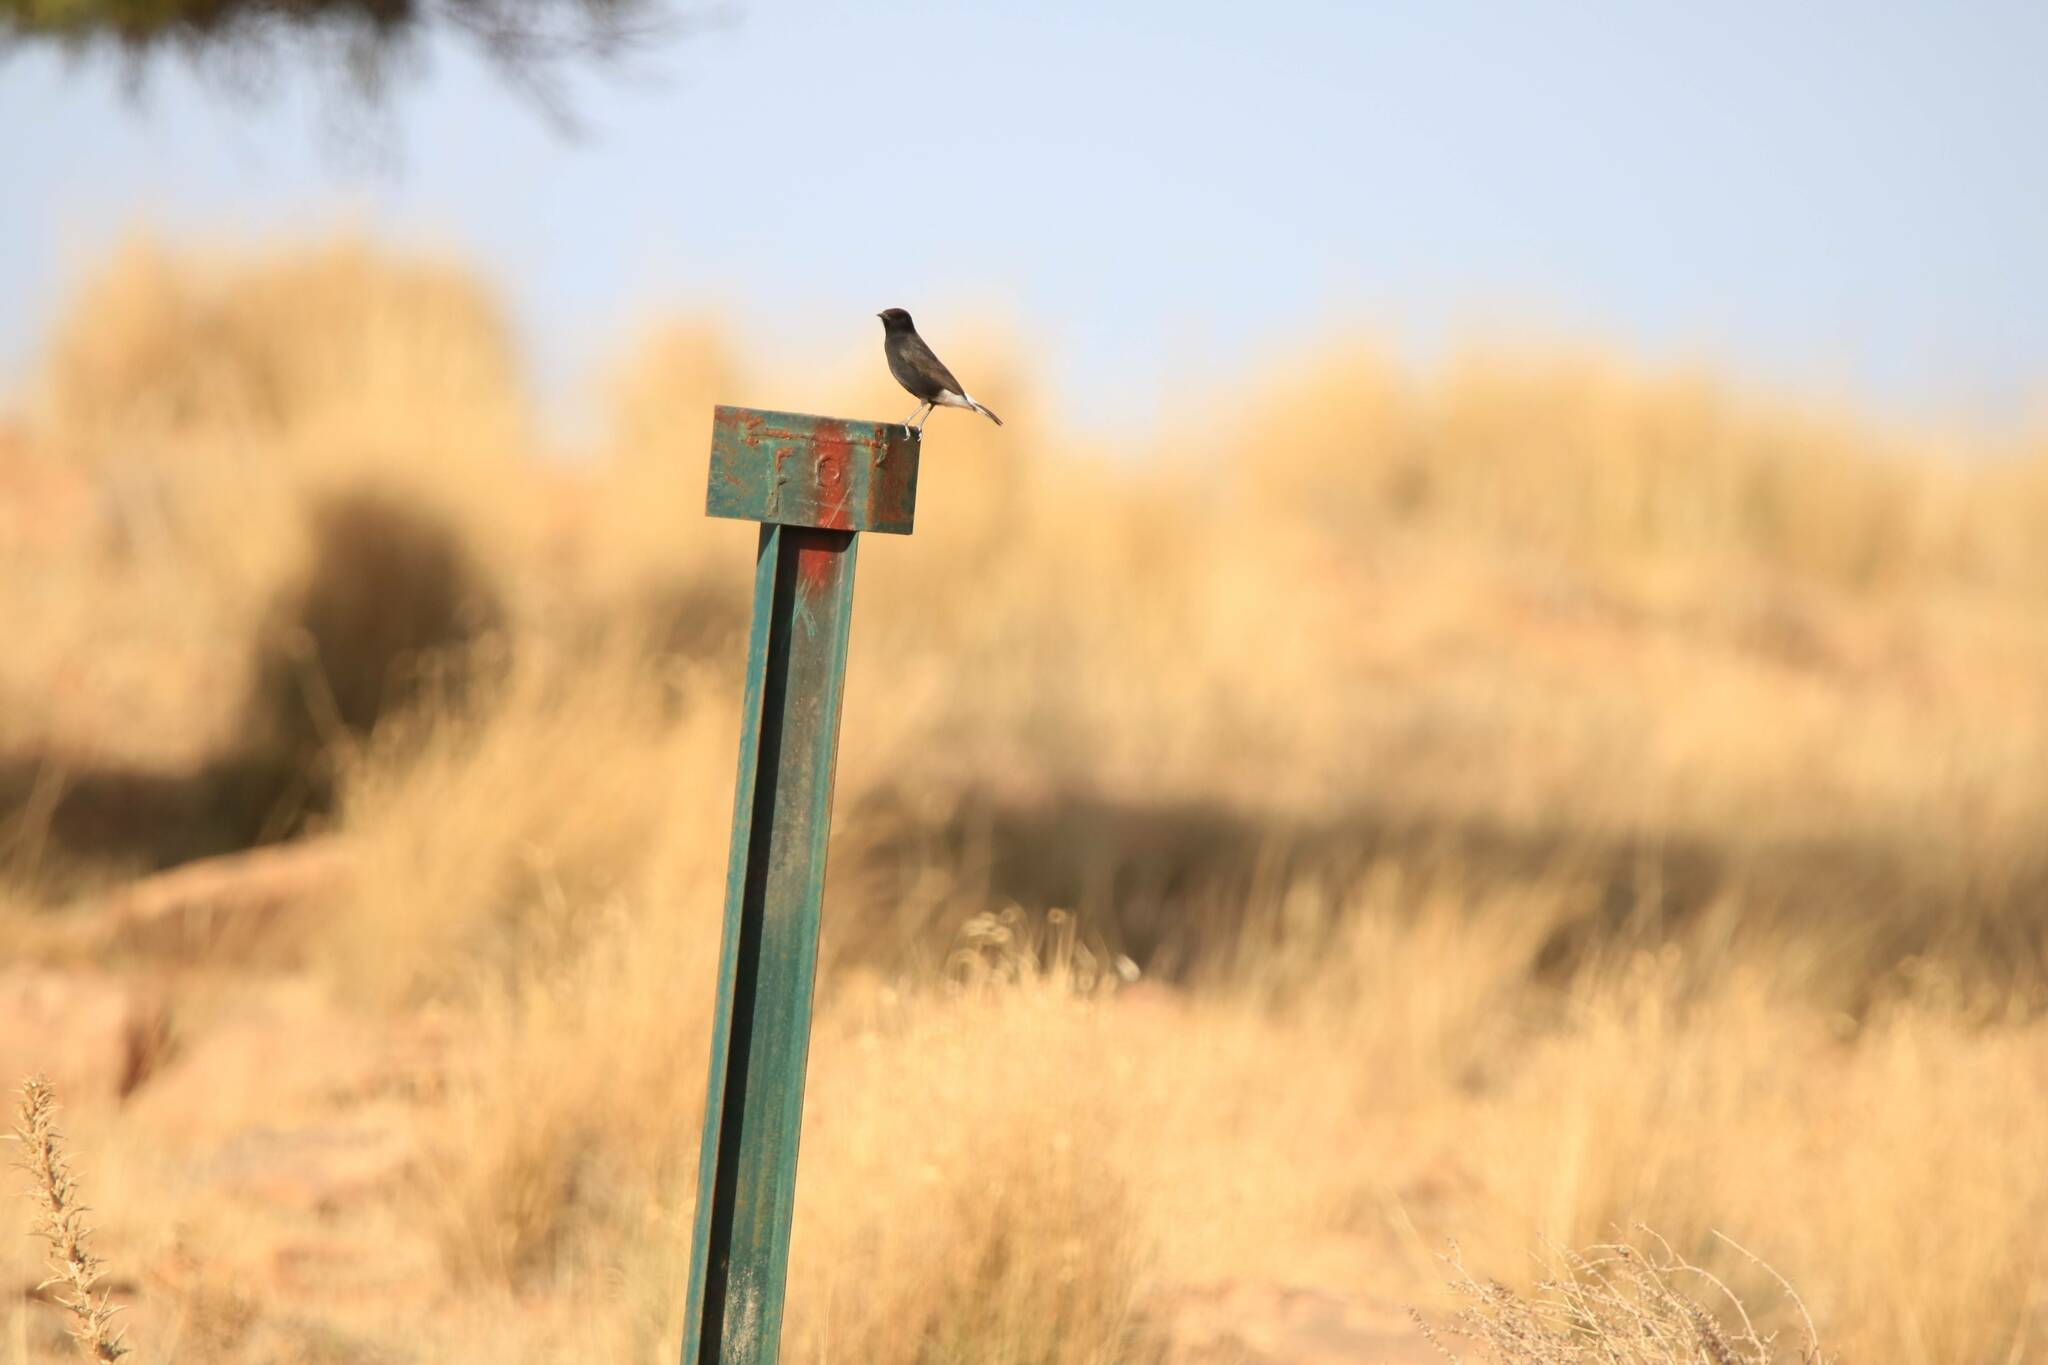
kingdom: Animalia
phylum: Chordata
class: Aves
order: Passeriformes
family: Muscicapidae
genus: Oenanthe
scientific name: Oenanthe leucura
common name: Black wheatear
